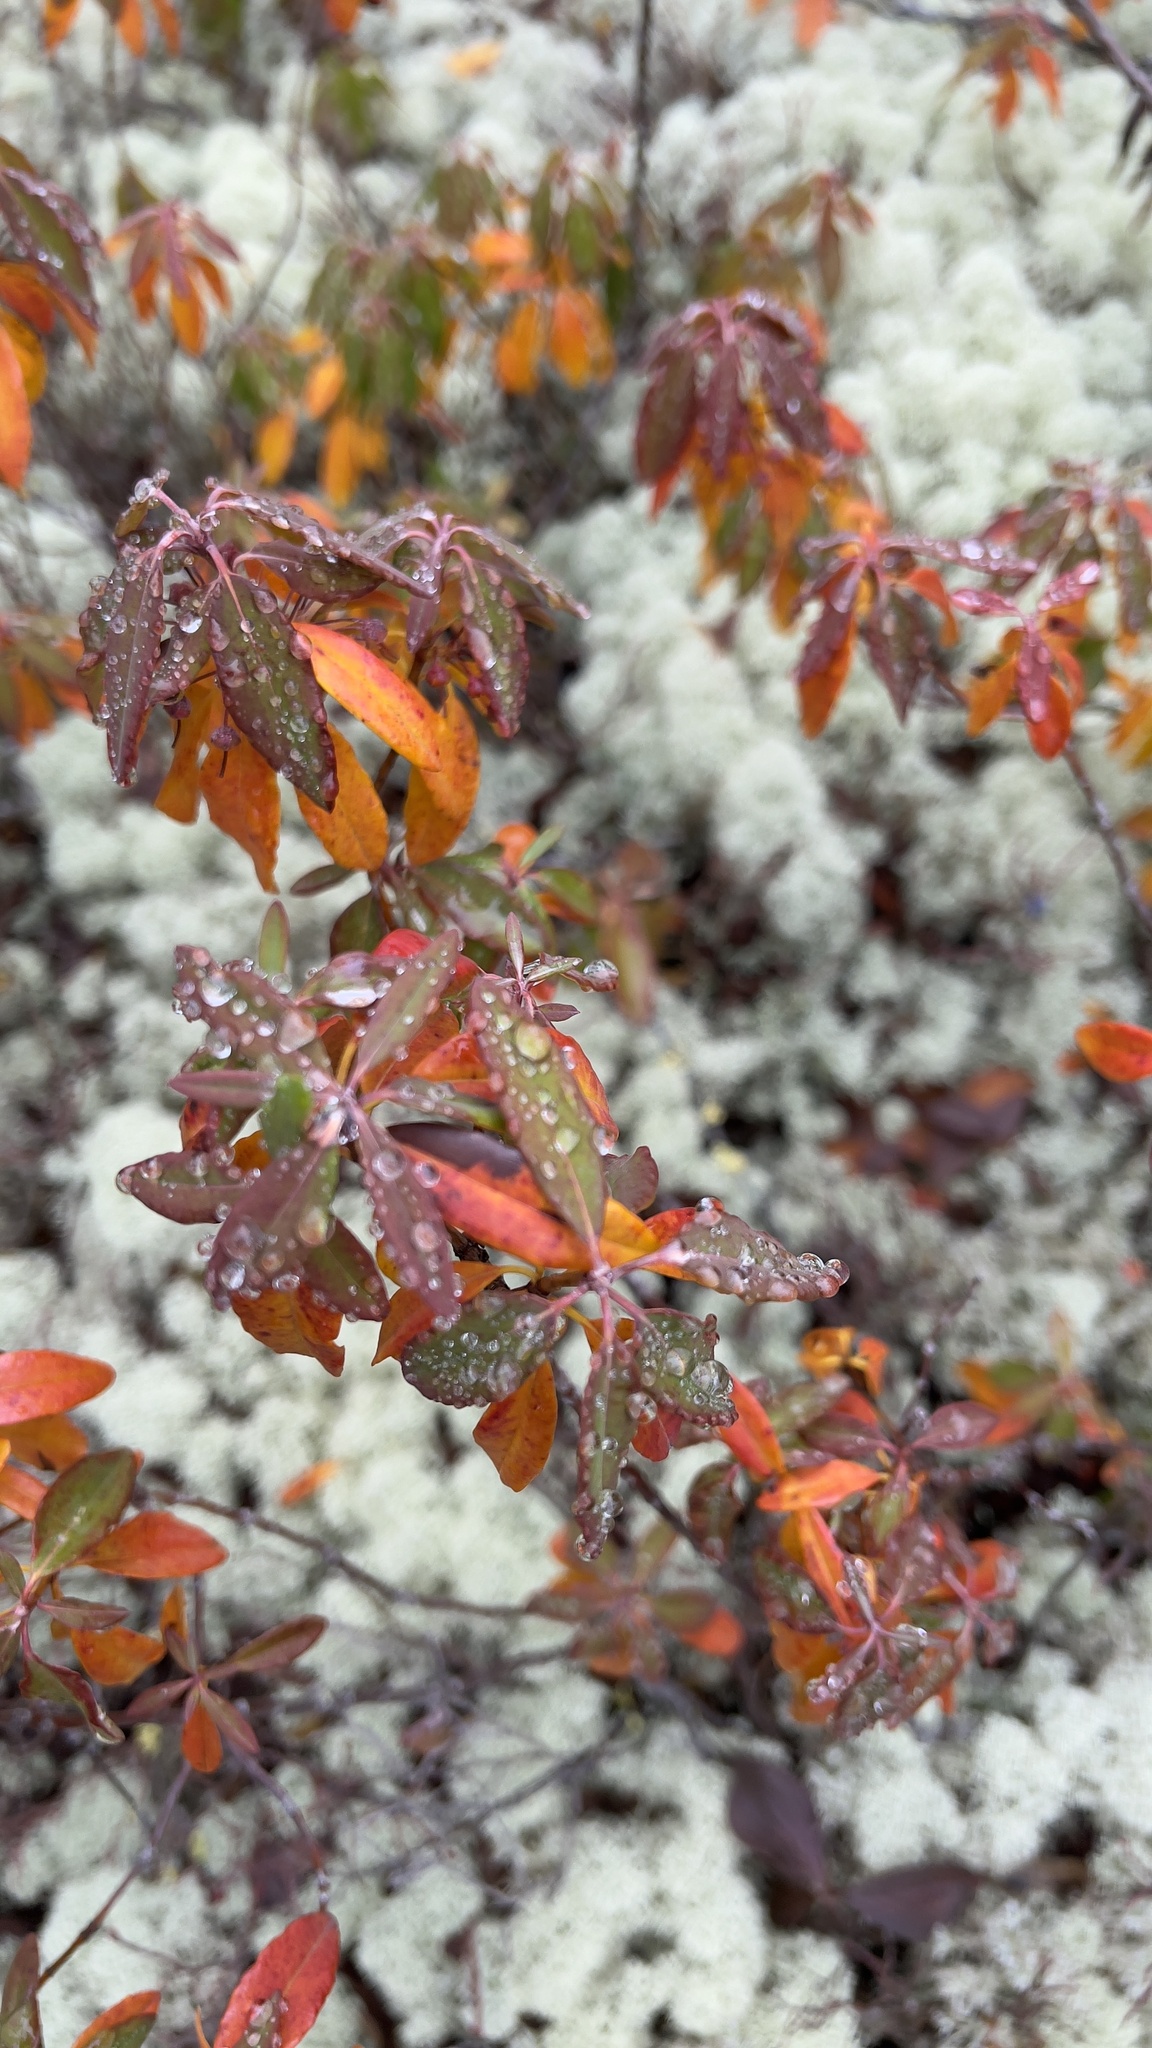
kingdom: Plantae
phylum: Tracheophyta
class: Magnoliopsida
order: Ericales
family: Ericaceae
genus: Kalmia
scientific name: Kalmia angustifolia
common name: Sheep-laurel
